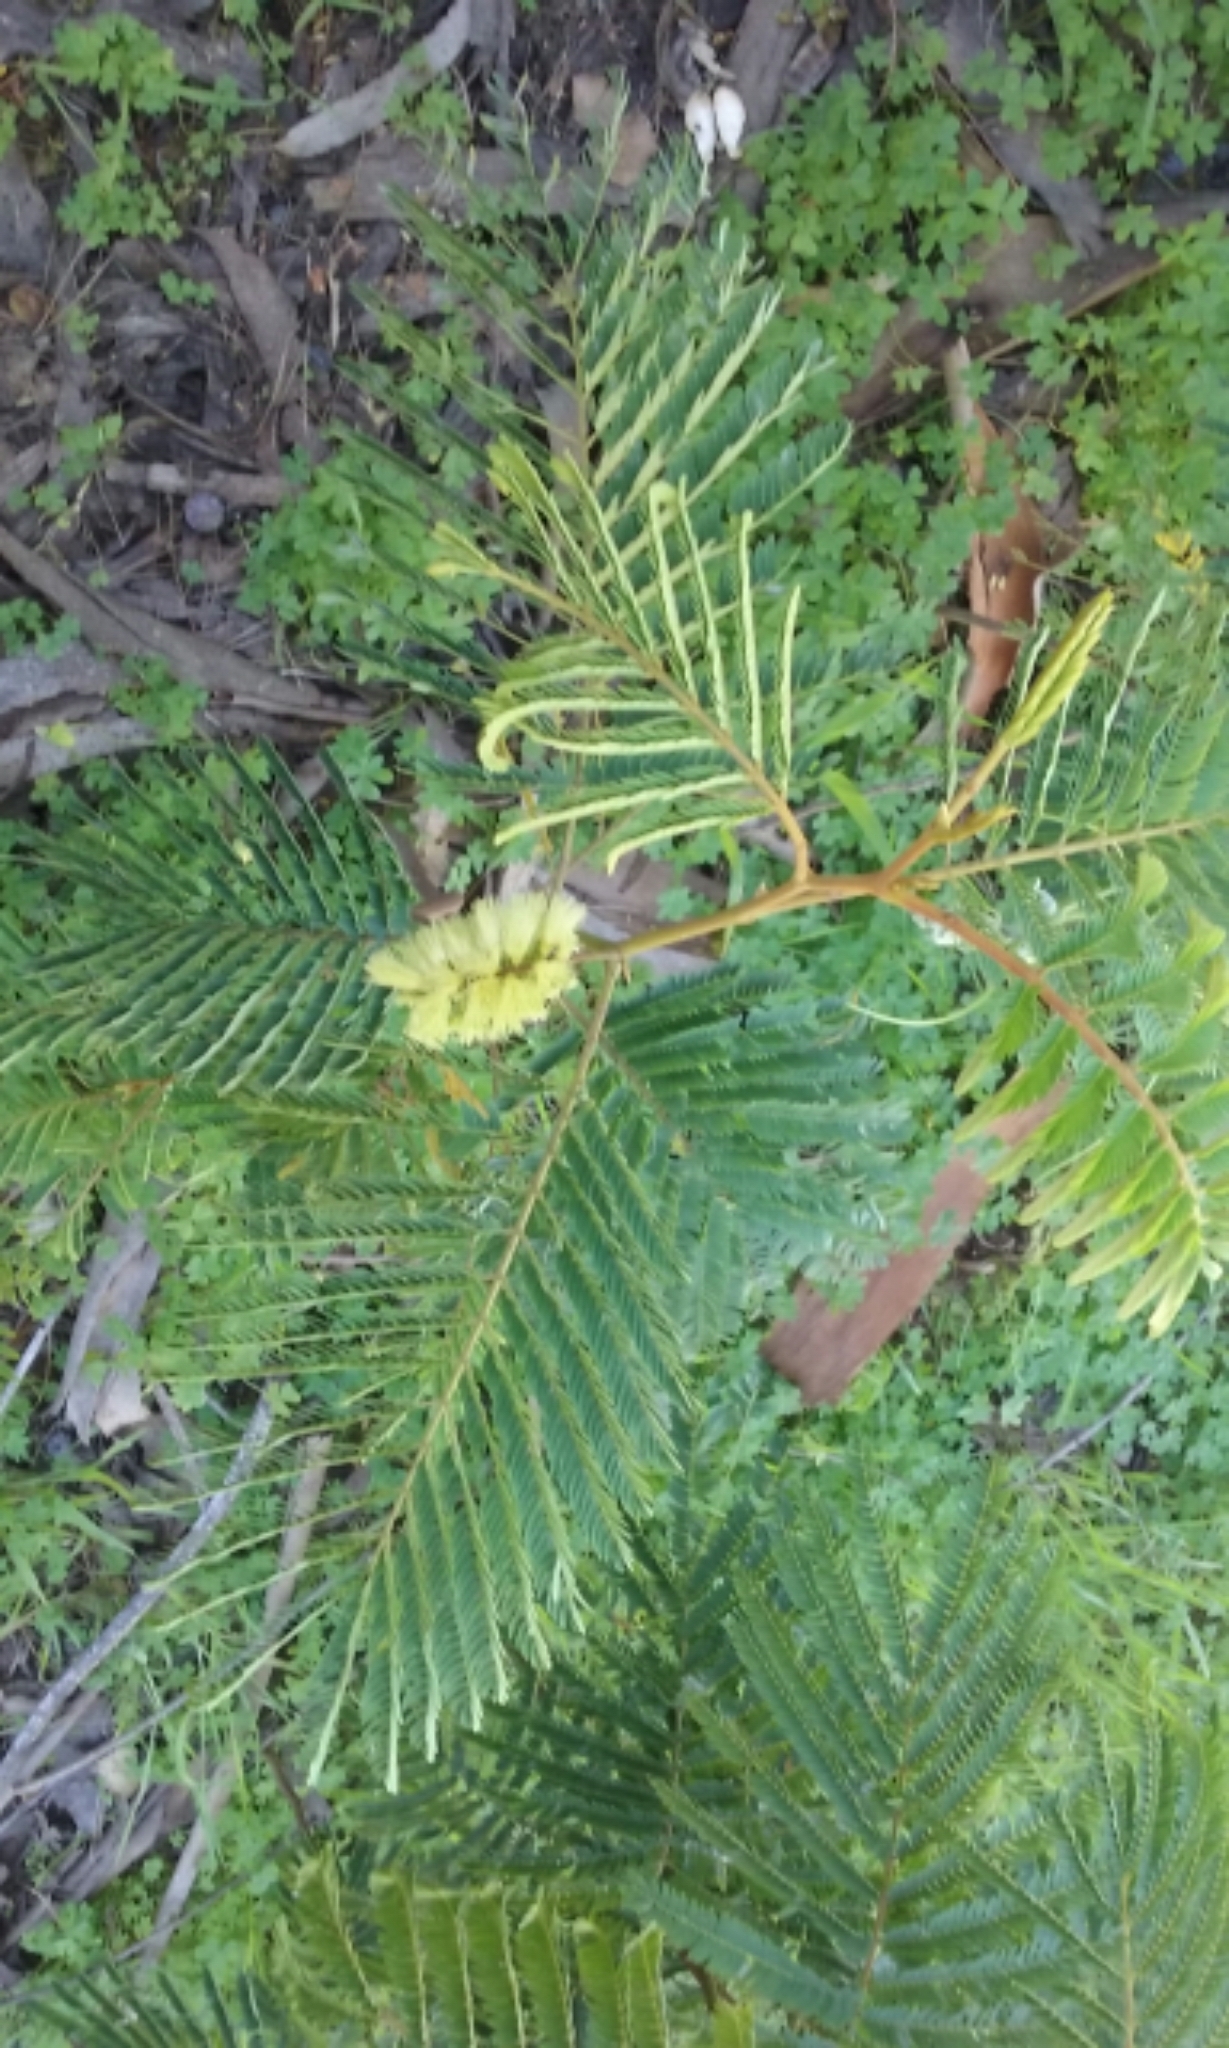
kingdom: Plantae
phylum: Tracheophyta
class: Magnoliopsida
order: Fabales
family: Fabaceae
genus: Paraserianthes
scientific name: Paraserianthes lophantha
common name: Plume albizia
